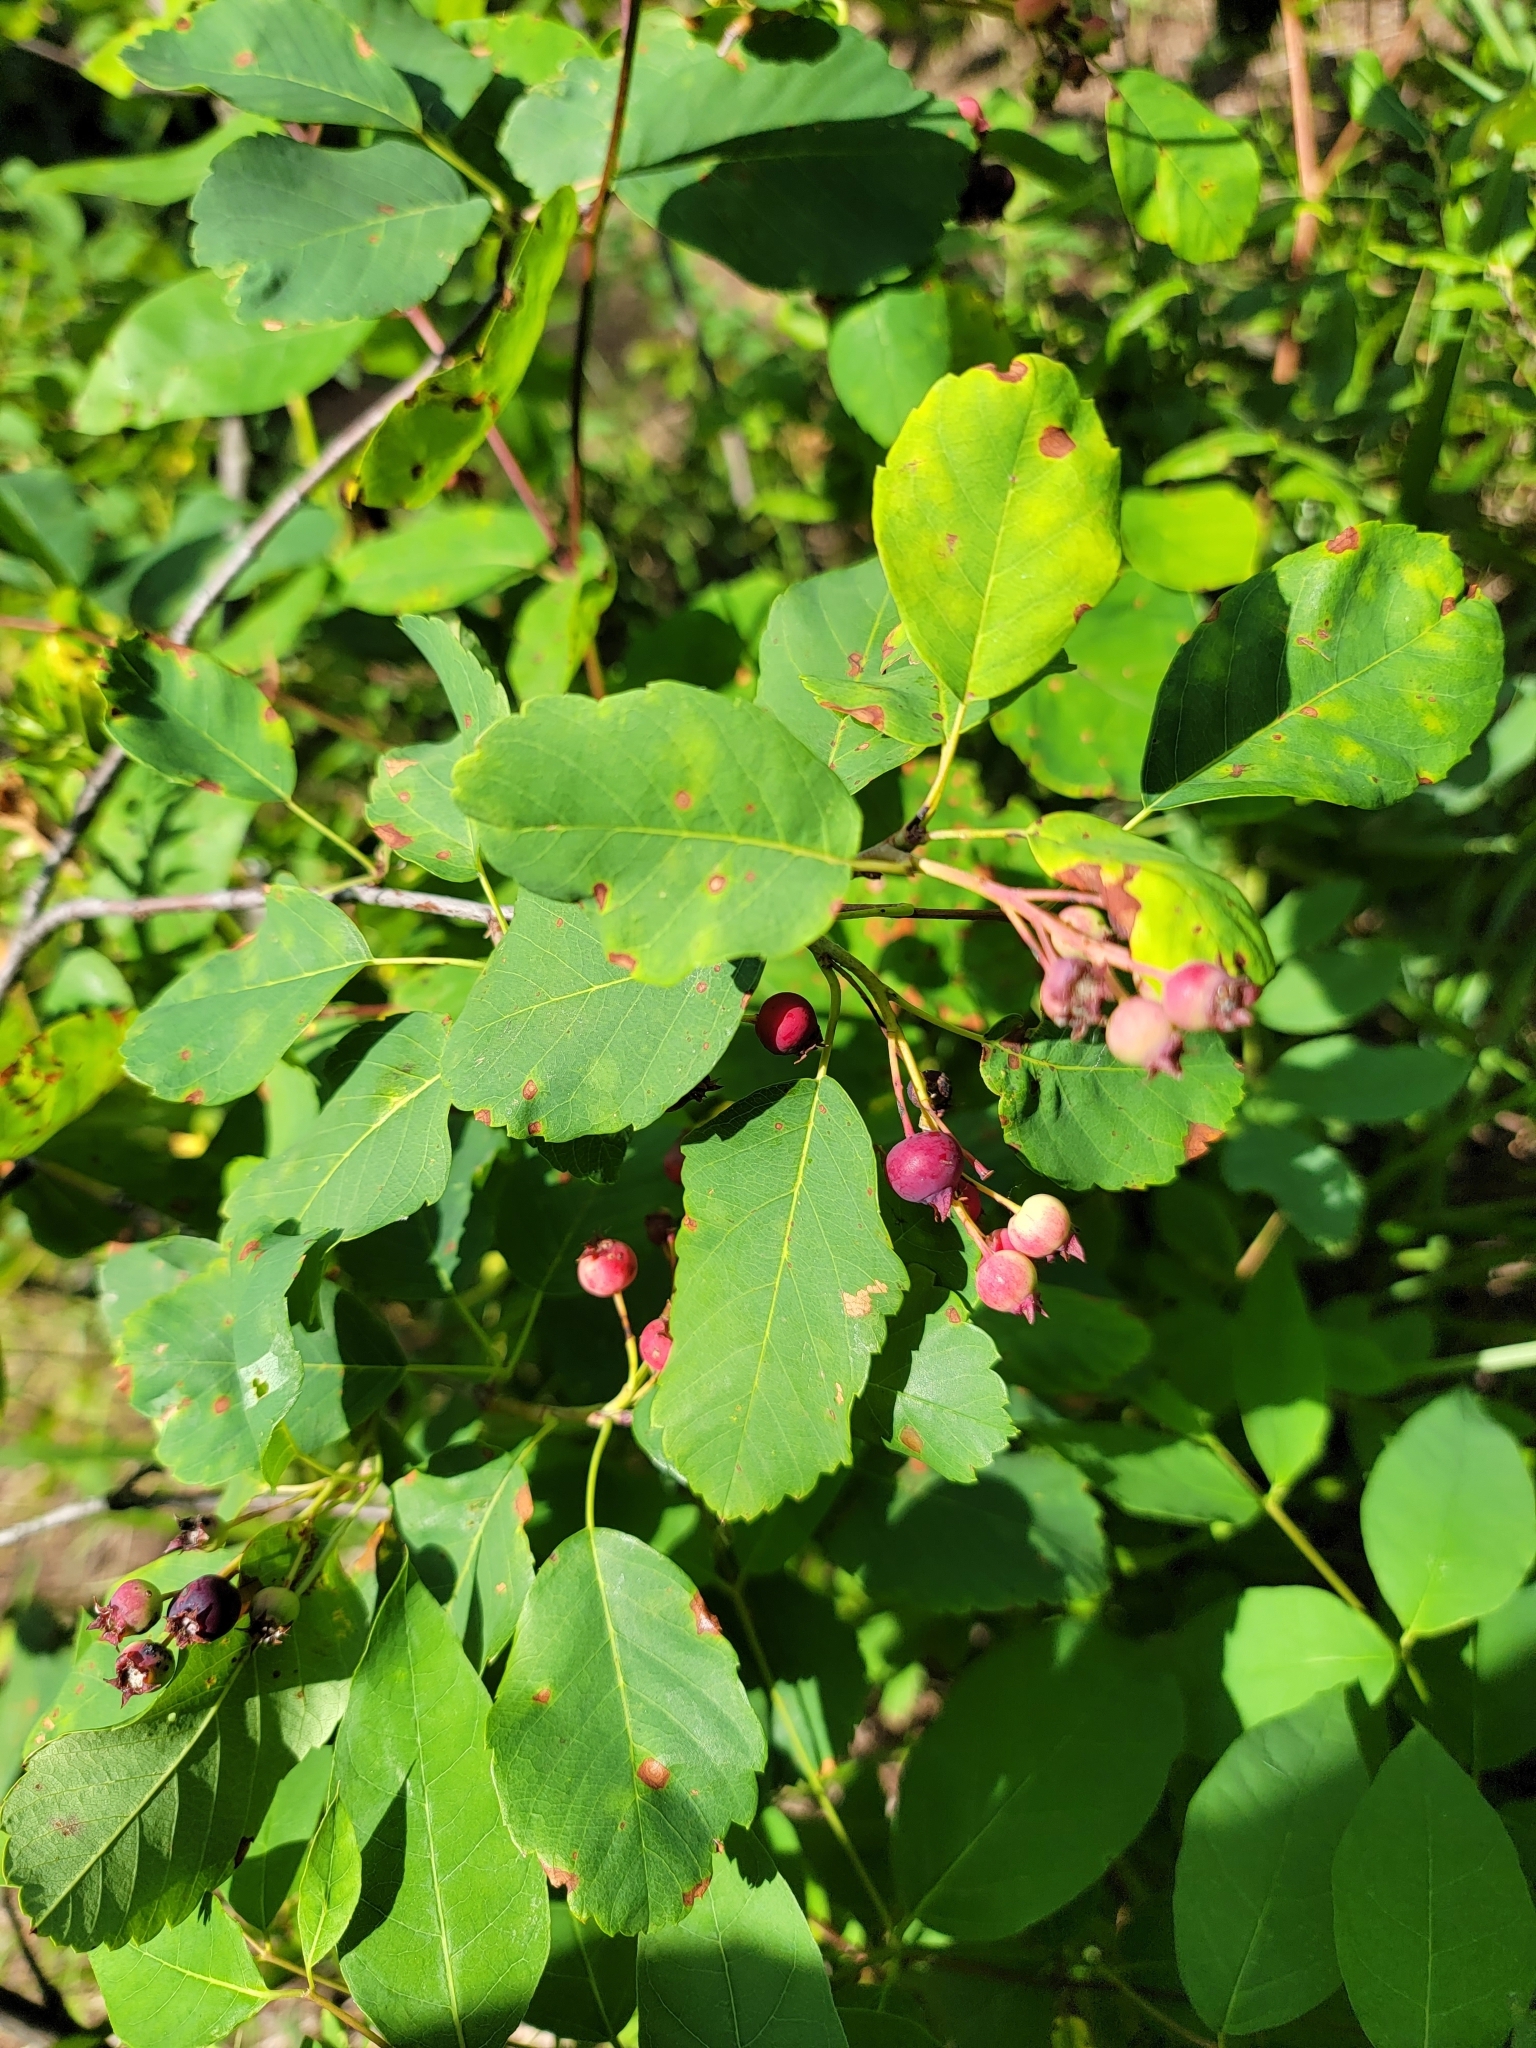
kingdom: Plantae
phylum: Tracheophyta
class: Magnoliopsida
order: Rosales
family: Rosaceae
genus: Amelanchier
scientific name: Amelanchier alnifolia
